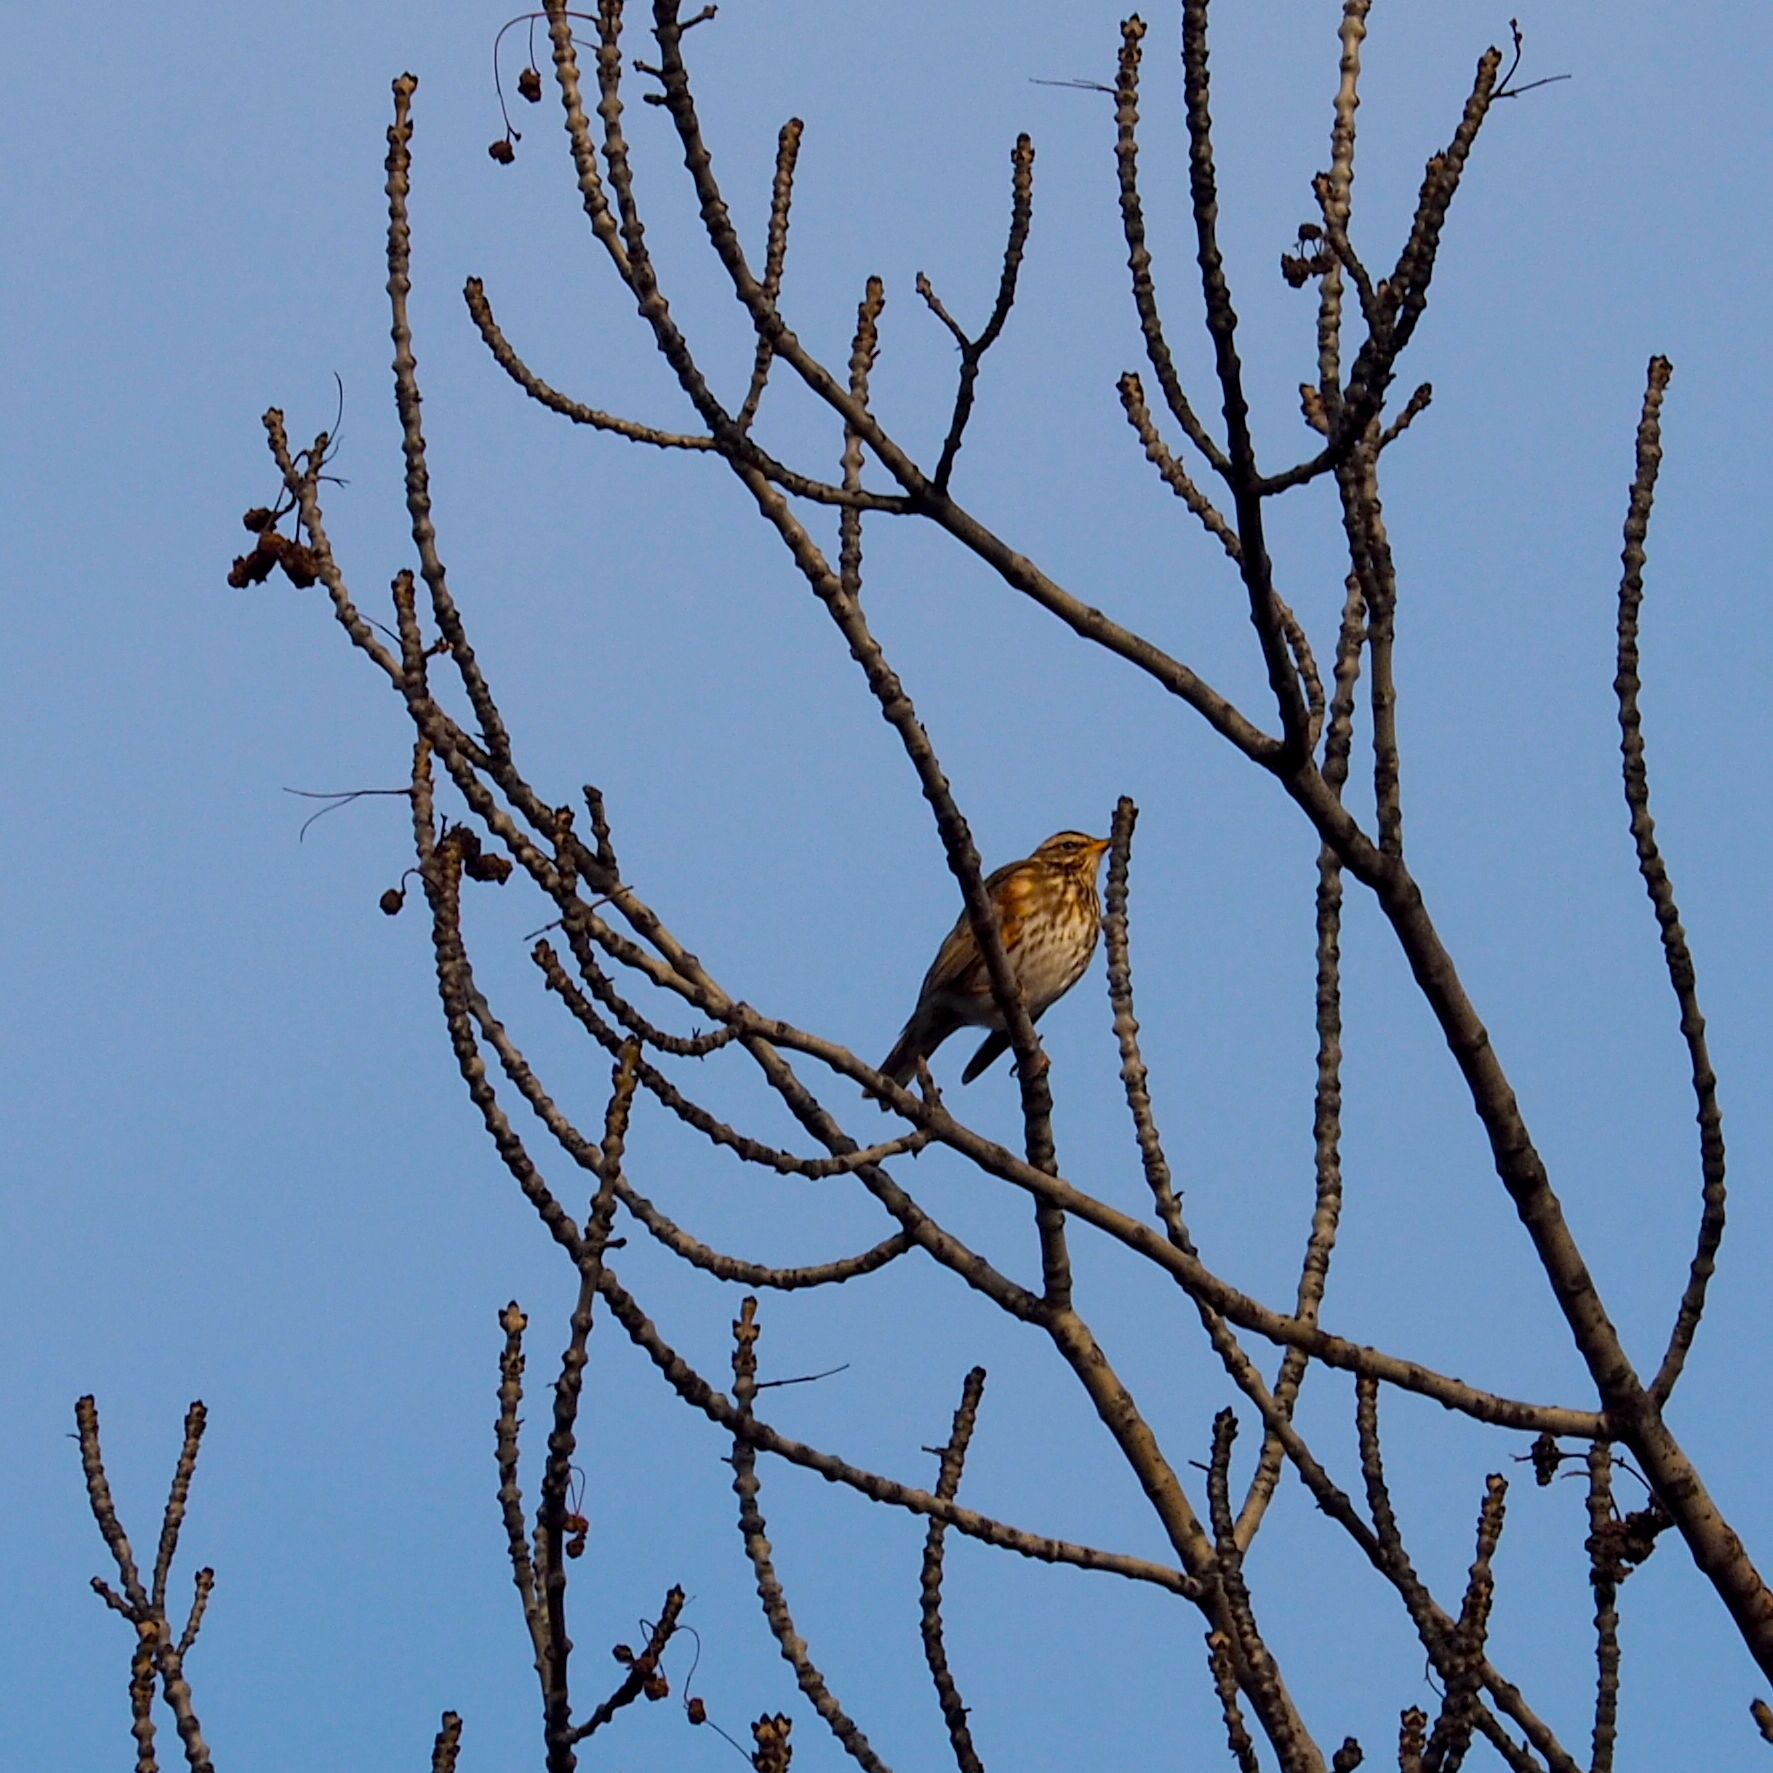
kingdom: Animalia
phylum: Chordata
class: Aves
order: Passeriformes
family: Turdidae
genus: Turdus
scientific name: Turdus iliacus
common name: Redwing
